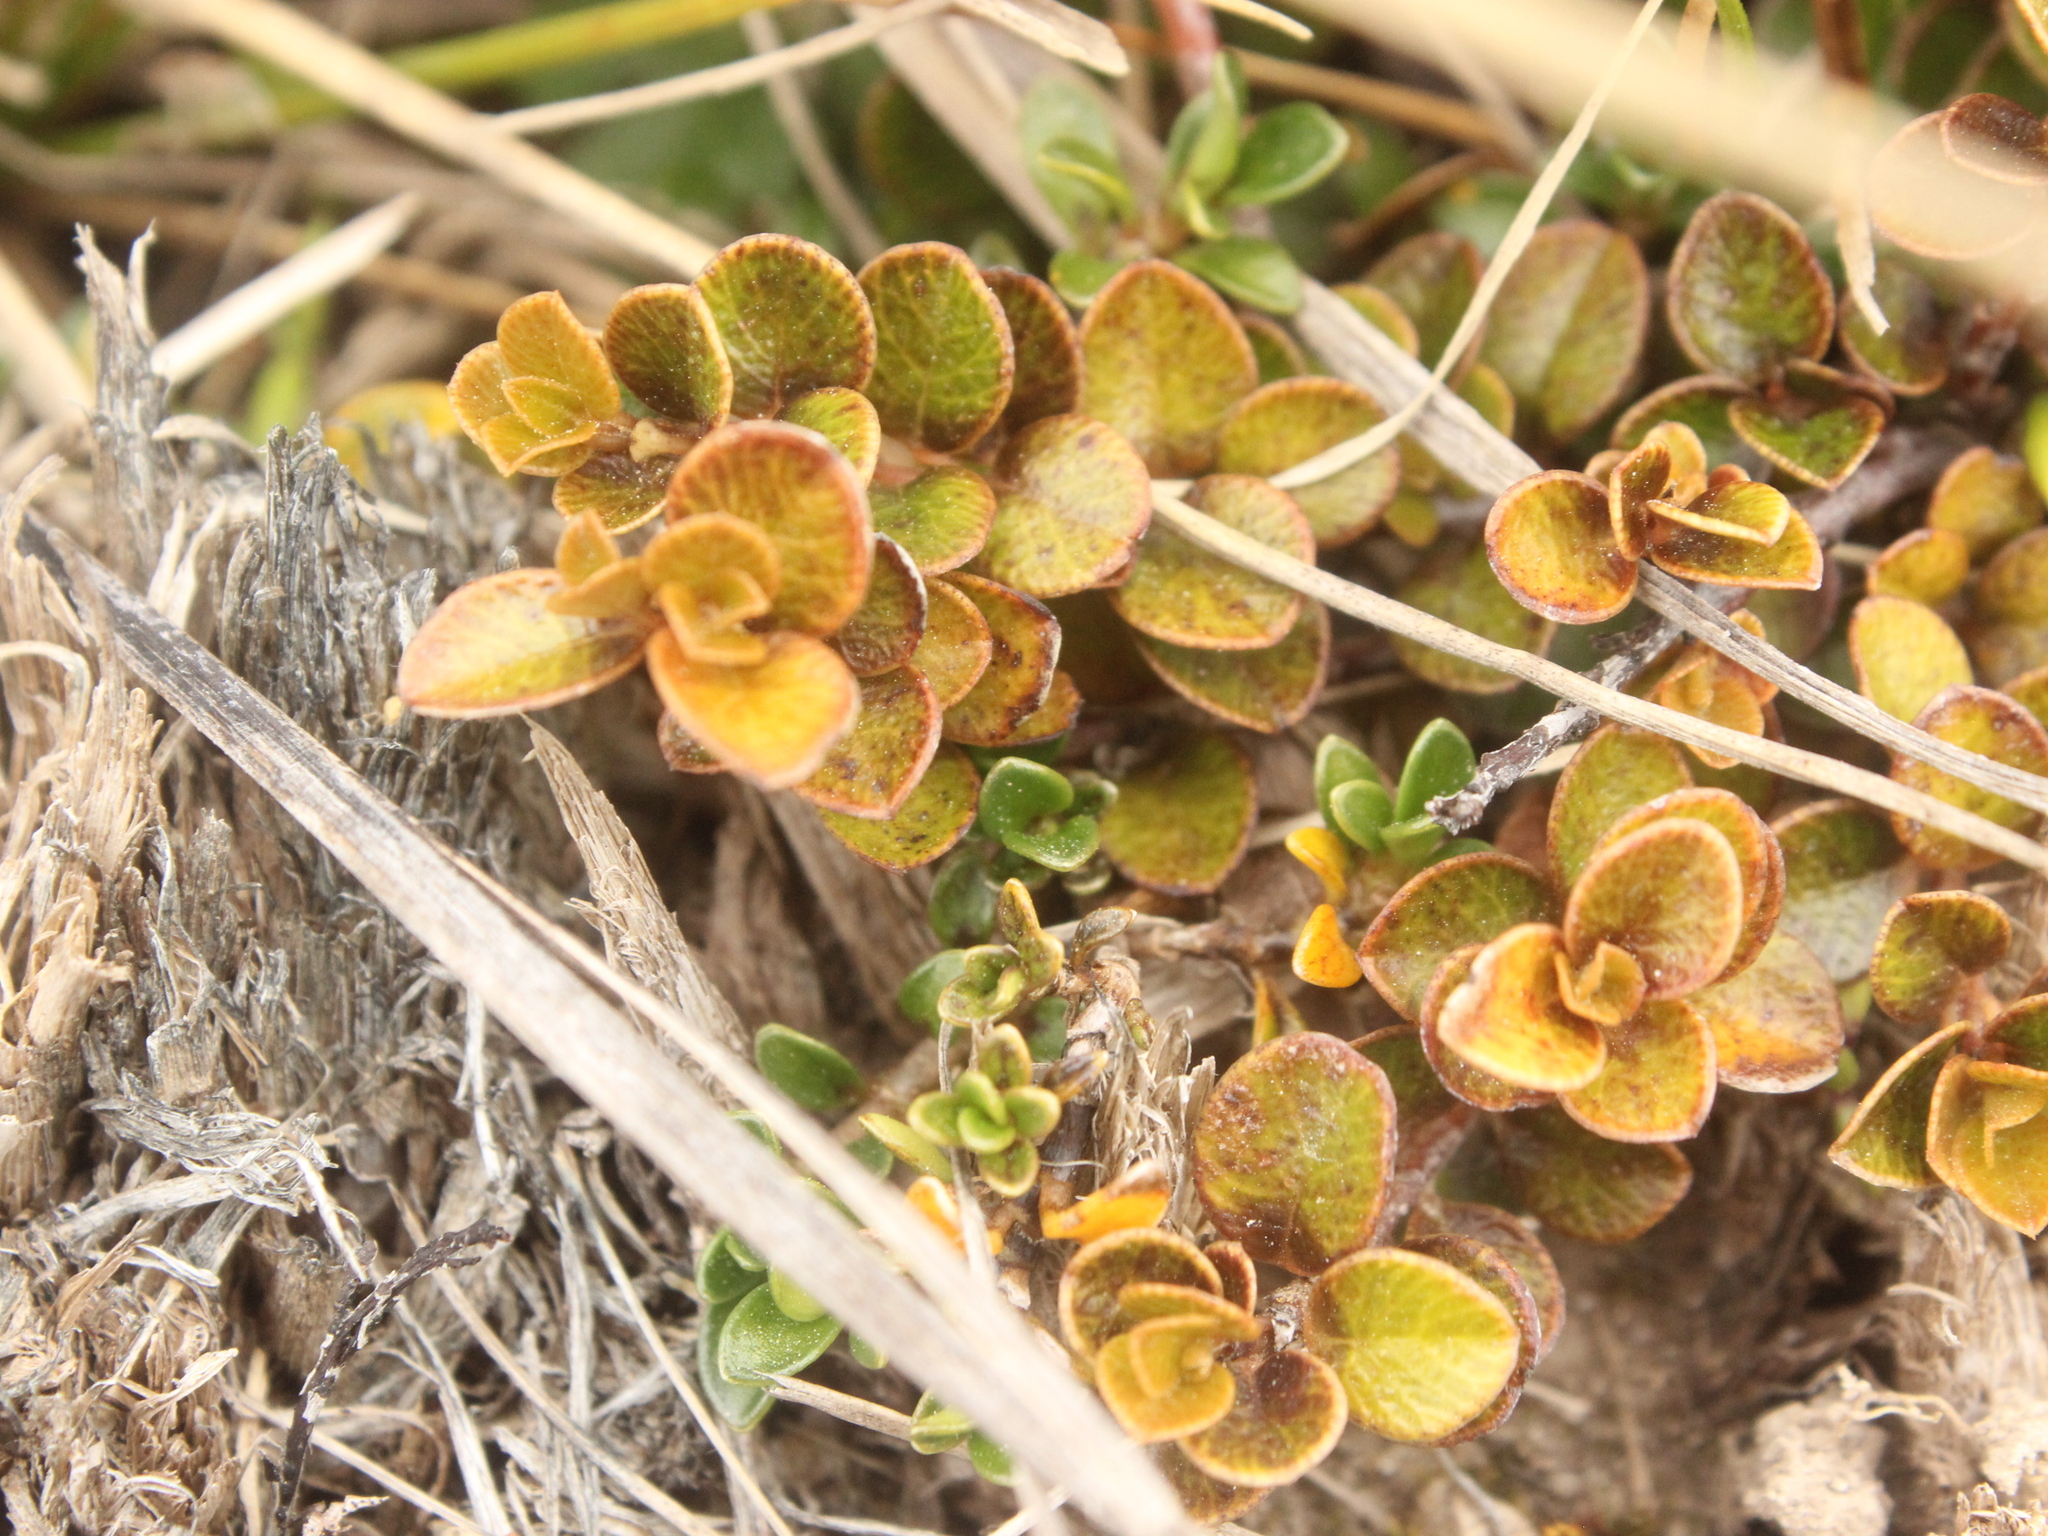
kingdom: Plantae
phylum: Tracheophyta
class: Magnoliopsida
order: Ericales
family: Primulaceae
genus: Myrsine
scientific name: Myrsine nummularia
